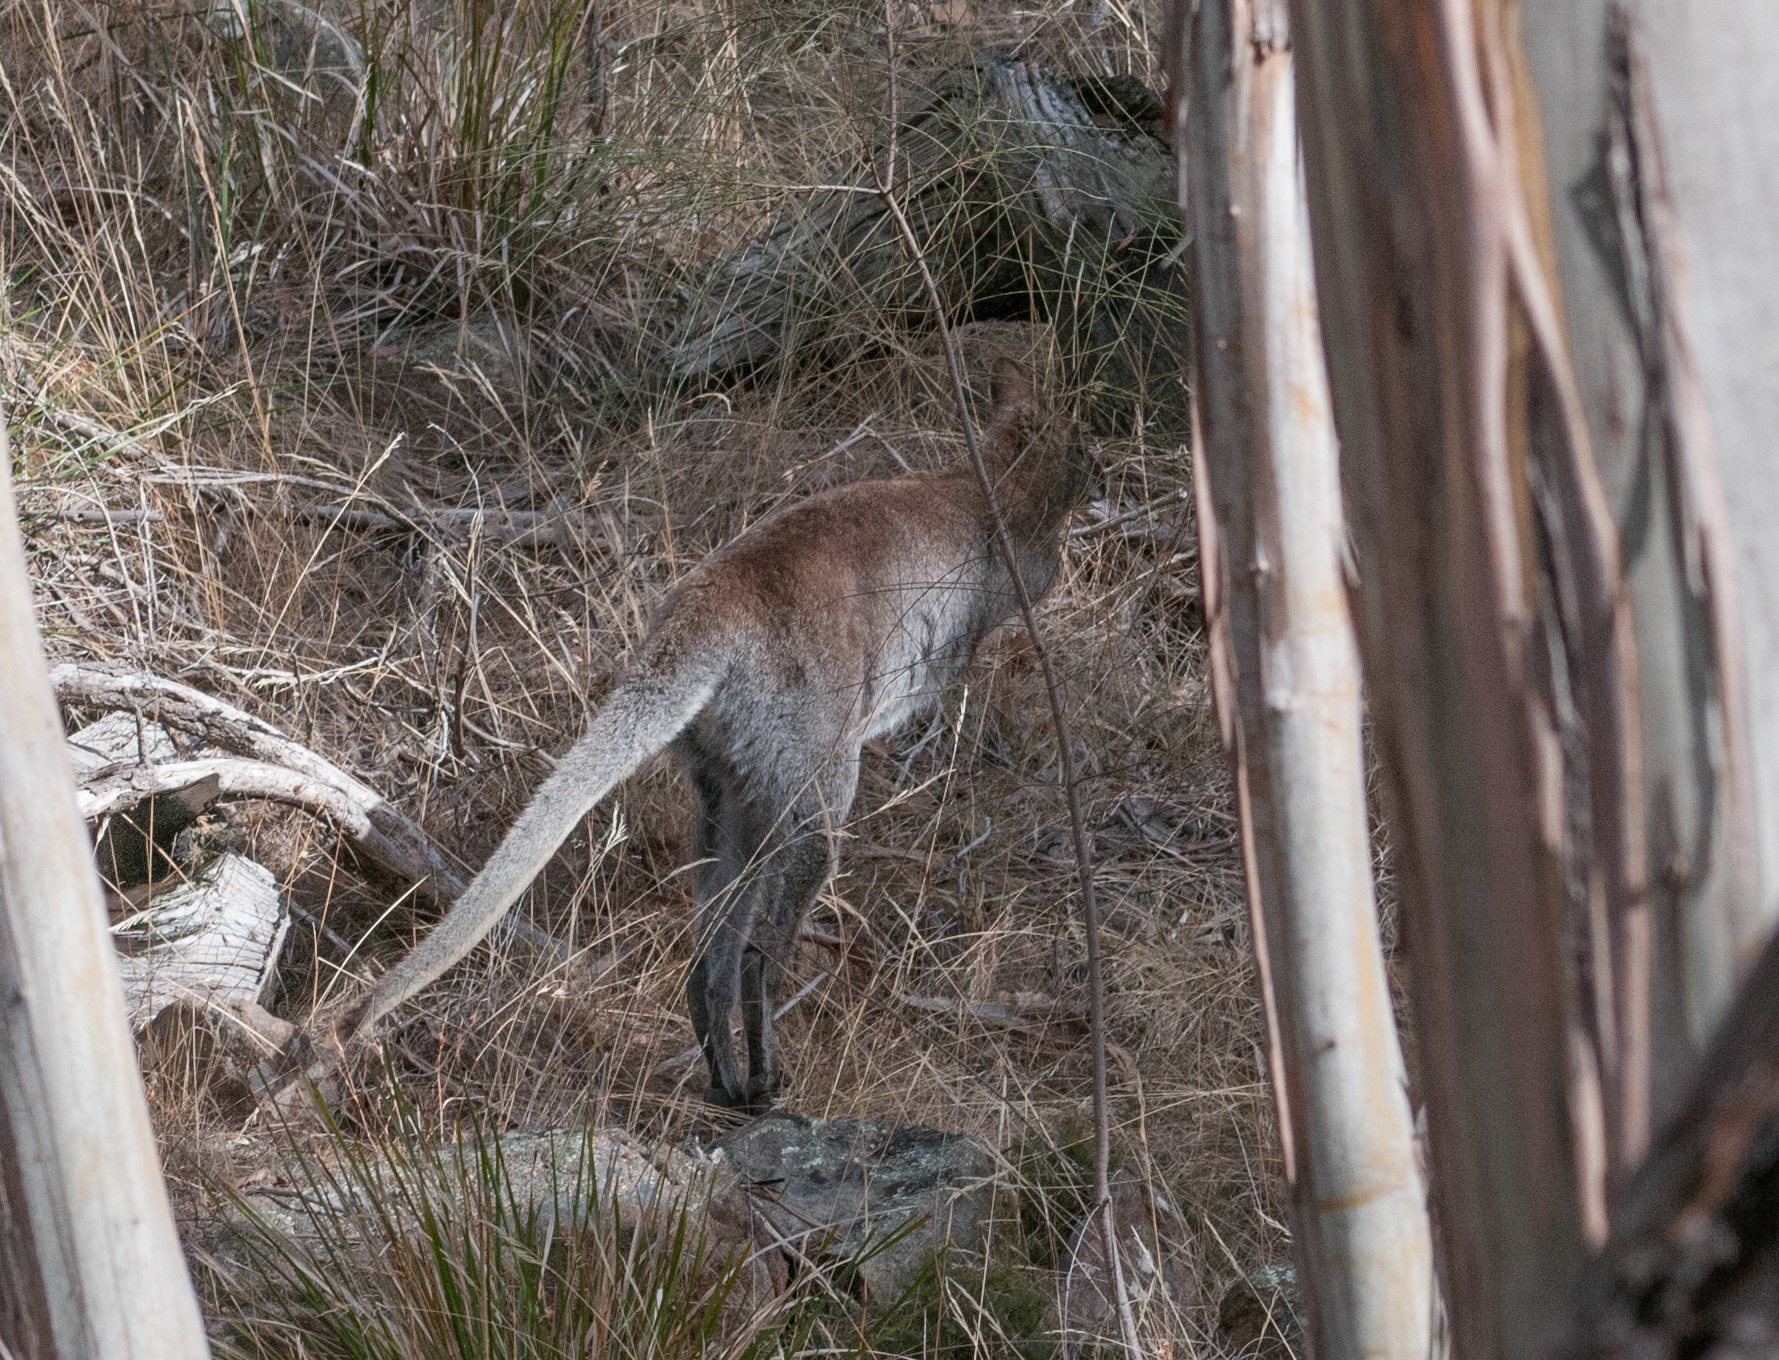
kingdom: Animalia
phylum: Chordata
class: Mammalia
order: Diprotodontia
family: Macropodidae
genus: Notamacropus
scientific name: Notamacropus rufogriseus
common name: Red-necked wallaby
